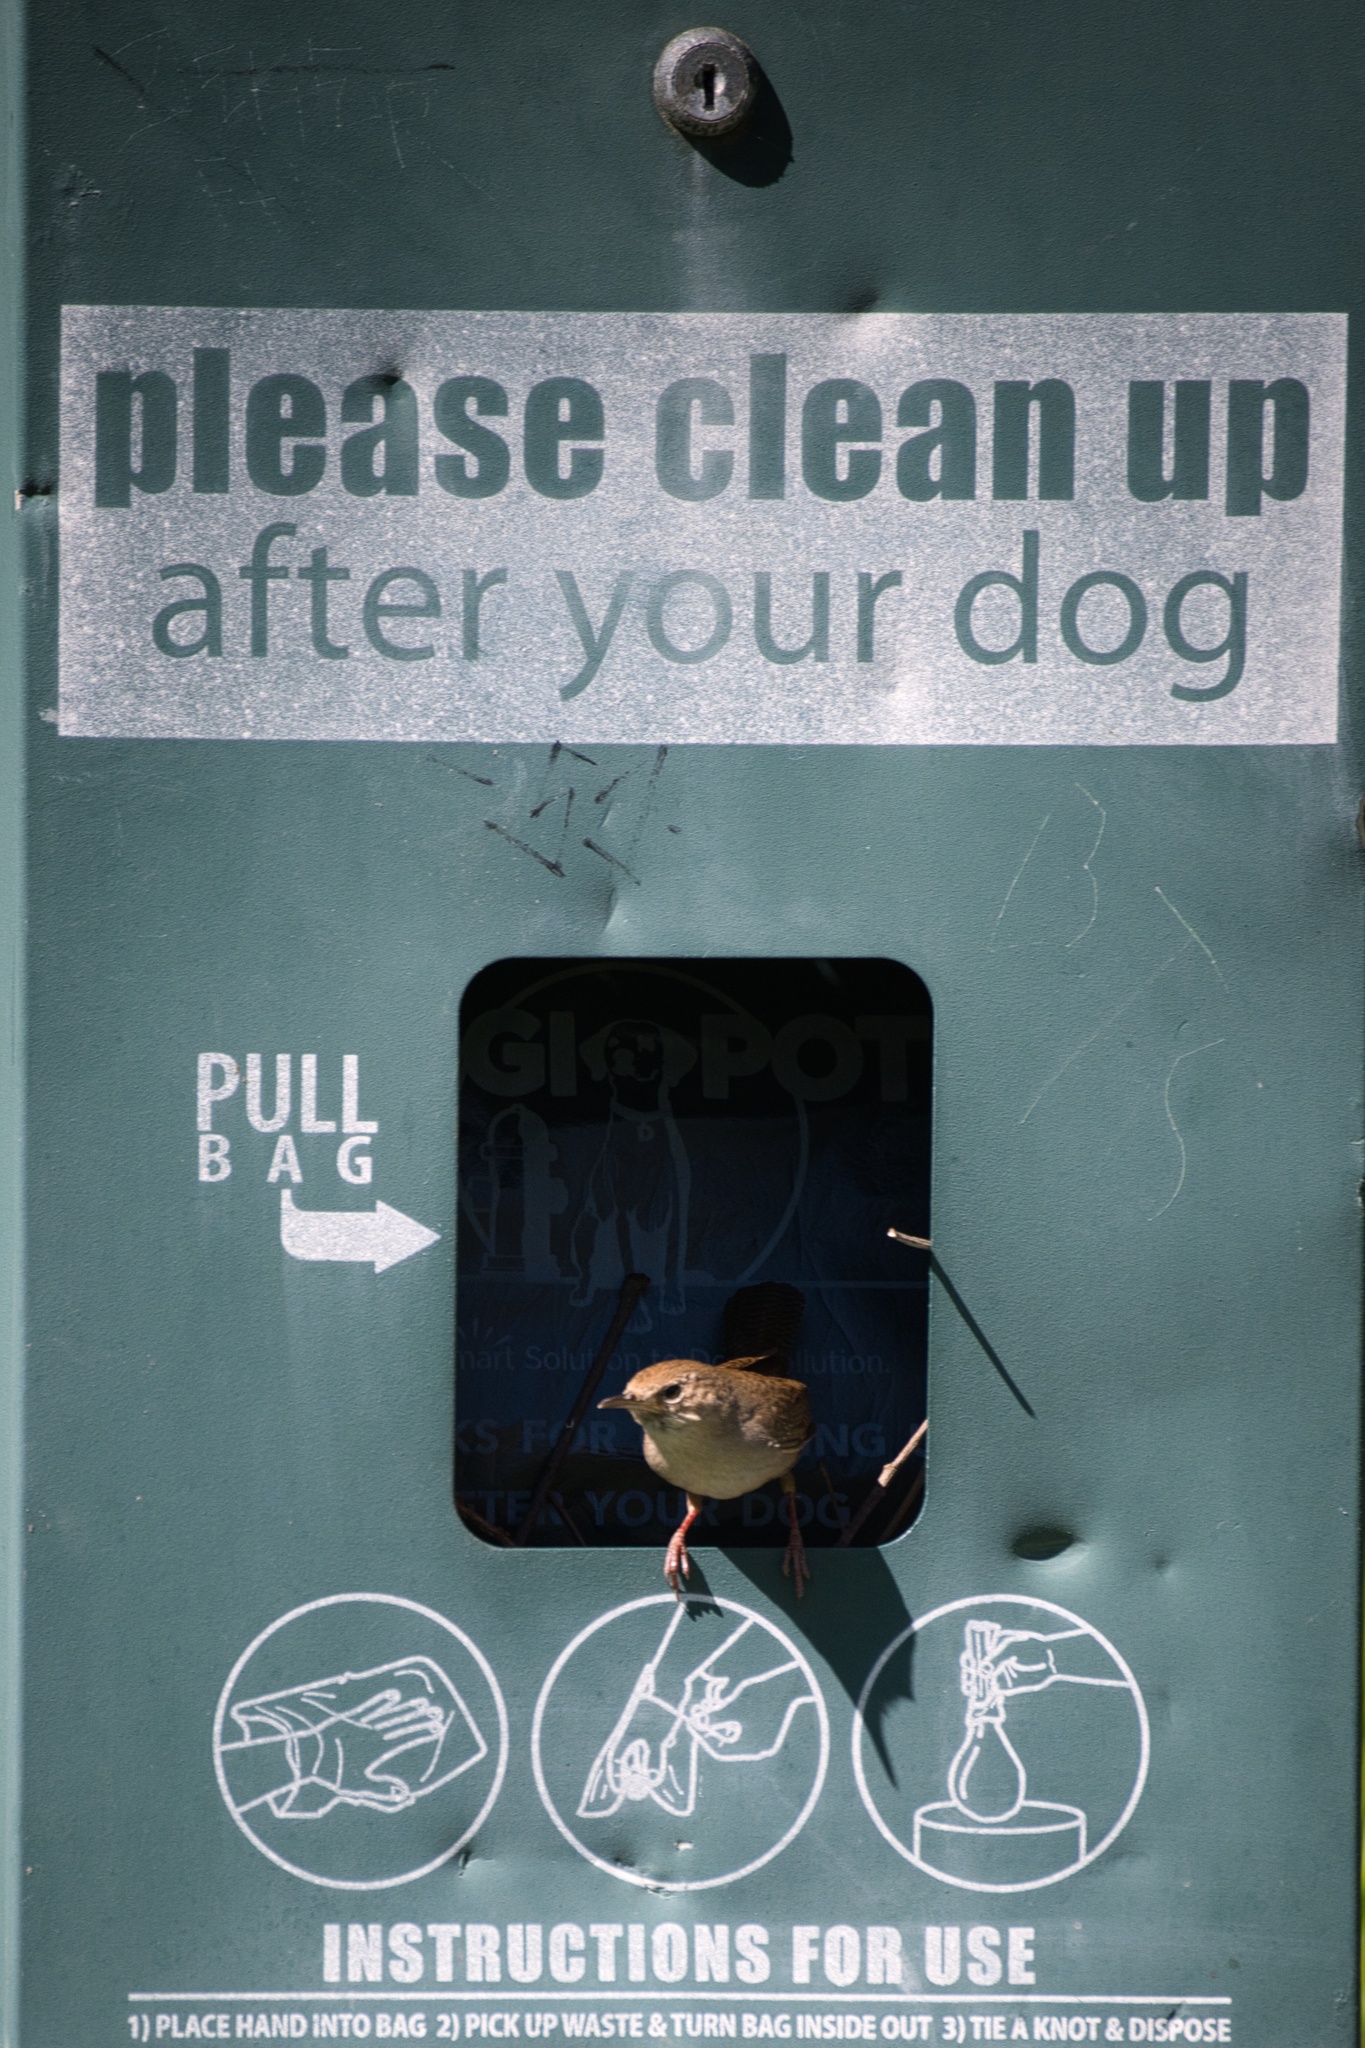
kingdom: Animalia
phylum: Chordata
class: Aves
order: Passeriformes
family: Troglodytidae
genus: Troglodytes
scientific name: Troglodytes aedon
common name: House wren
